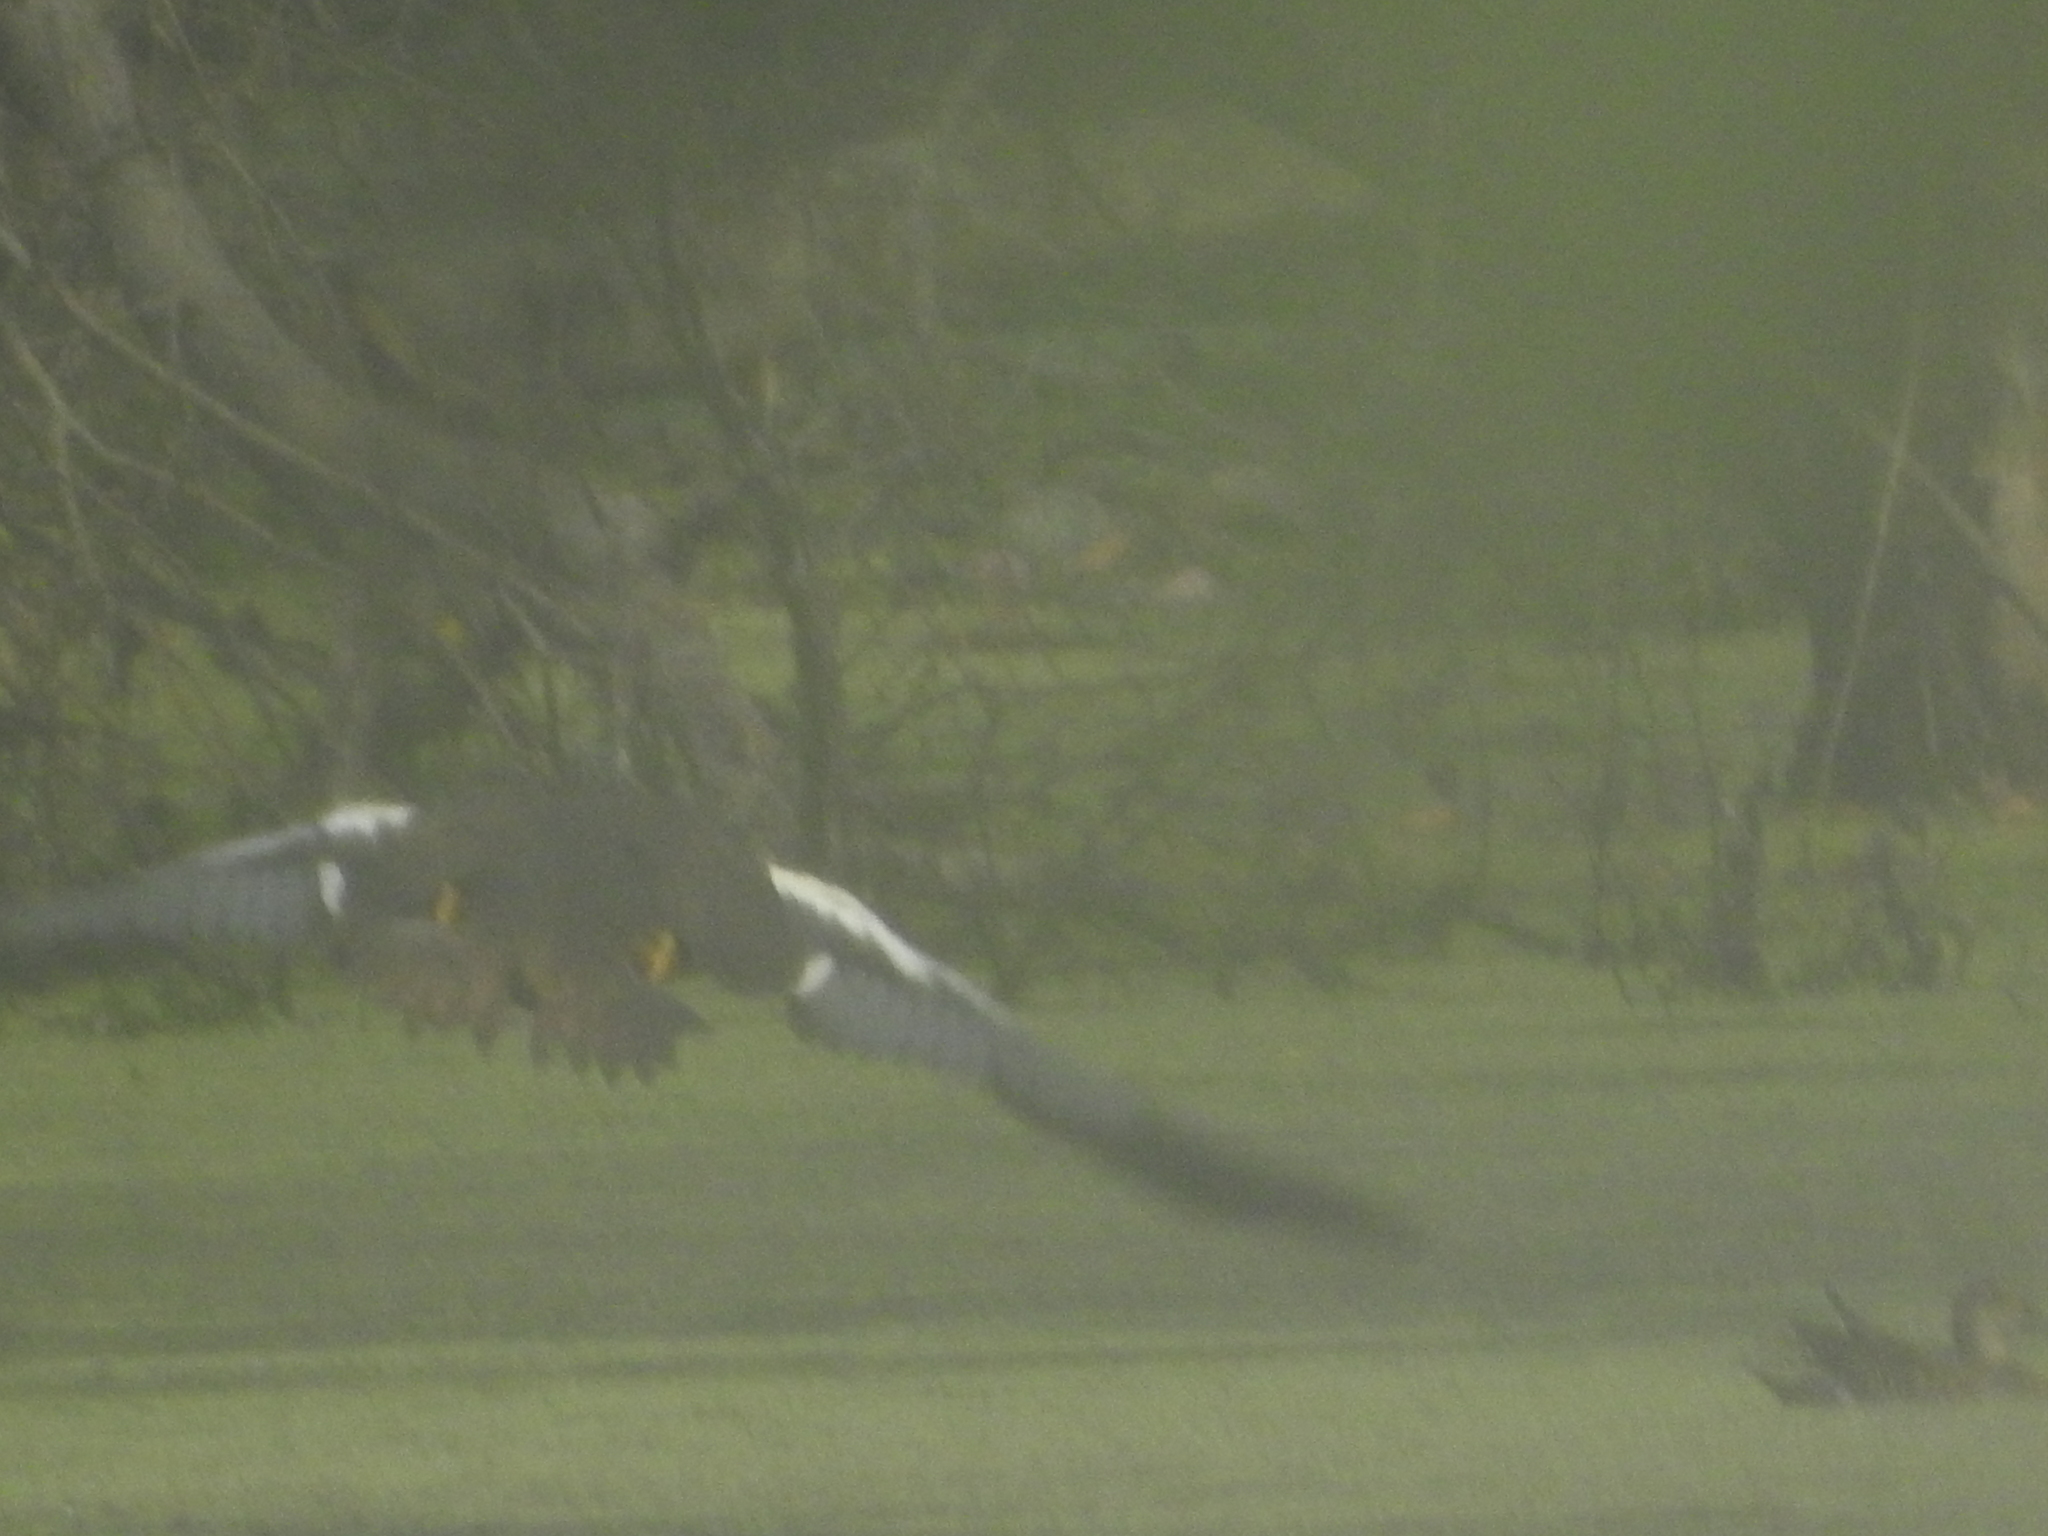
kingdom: Animalia
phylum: Chordata
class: Aves
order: Anseriformes
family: Anatidae
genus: Asarcornis
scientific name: Asarcornis scutulata
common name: White-winged duck
